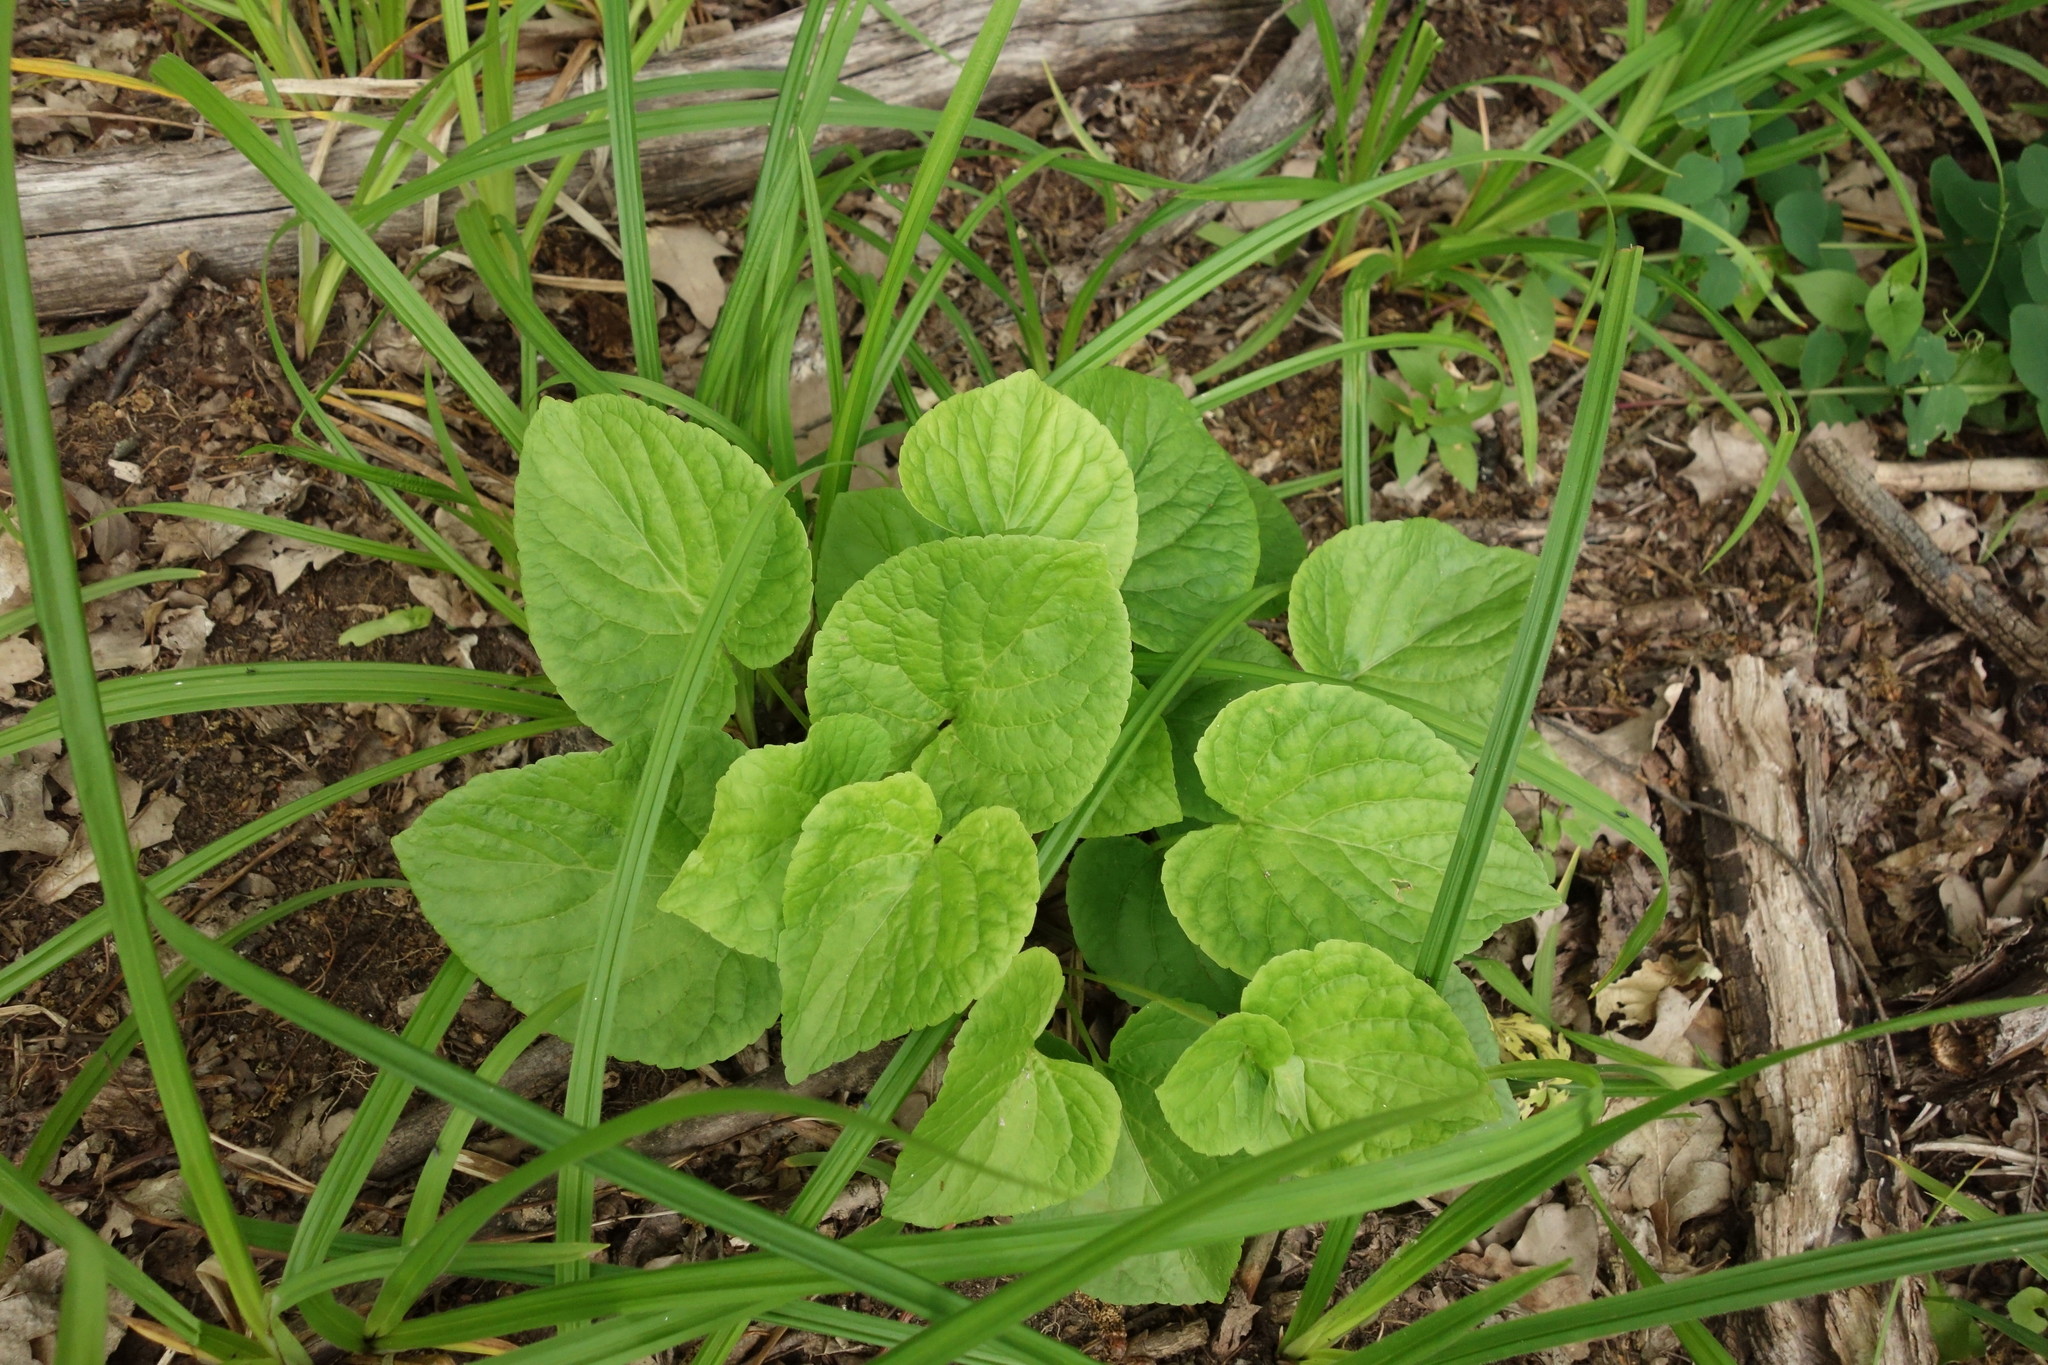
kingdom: Plantae
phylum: Tracheophyta
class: Magnoliopsida
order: Malpighiales
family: Violaceae
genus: Viola
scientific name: Viola mirabilis
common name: Wonder violet
